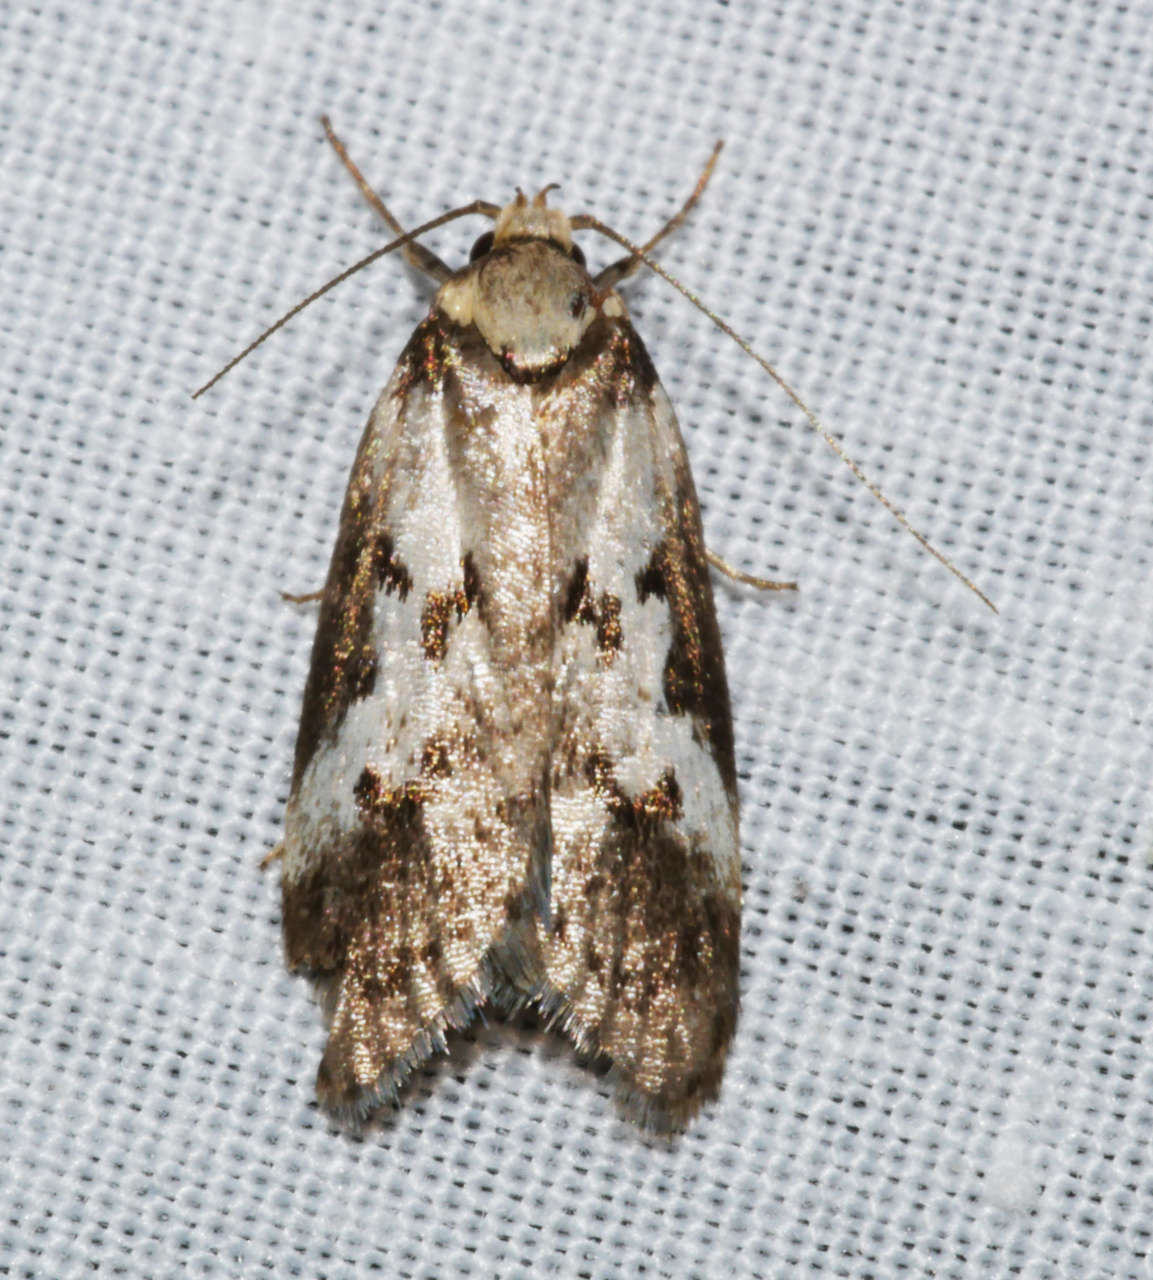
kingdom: Animalia
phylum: Arthropoda
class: Insecta
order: Lepidoptera
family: Oecophoridae
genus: Philobota
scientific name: Philobota orinoma
